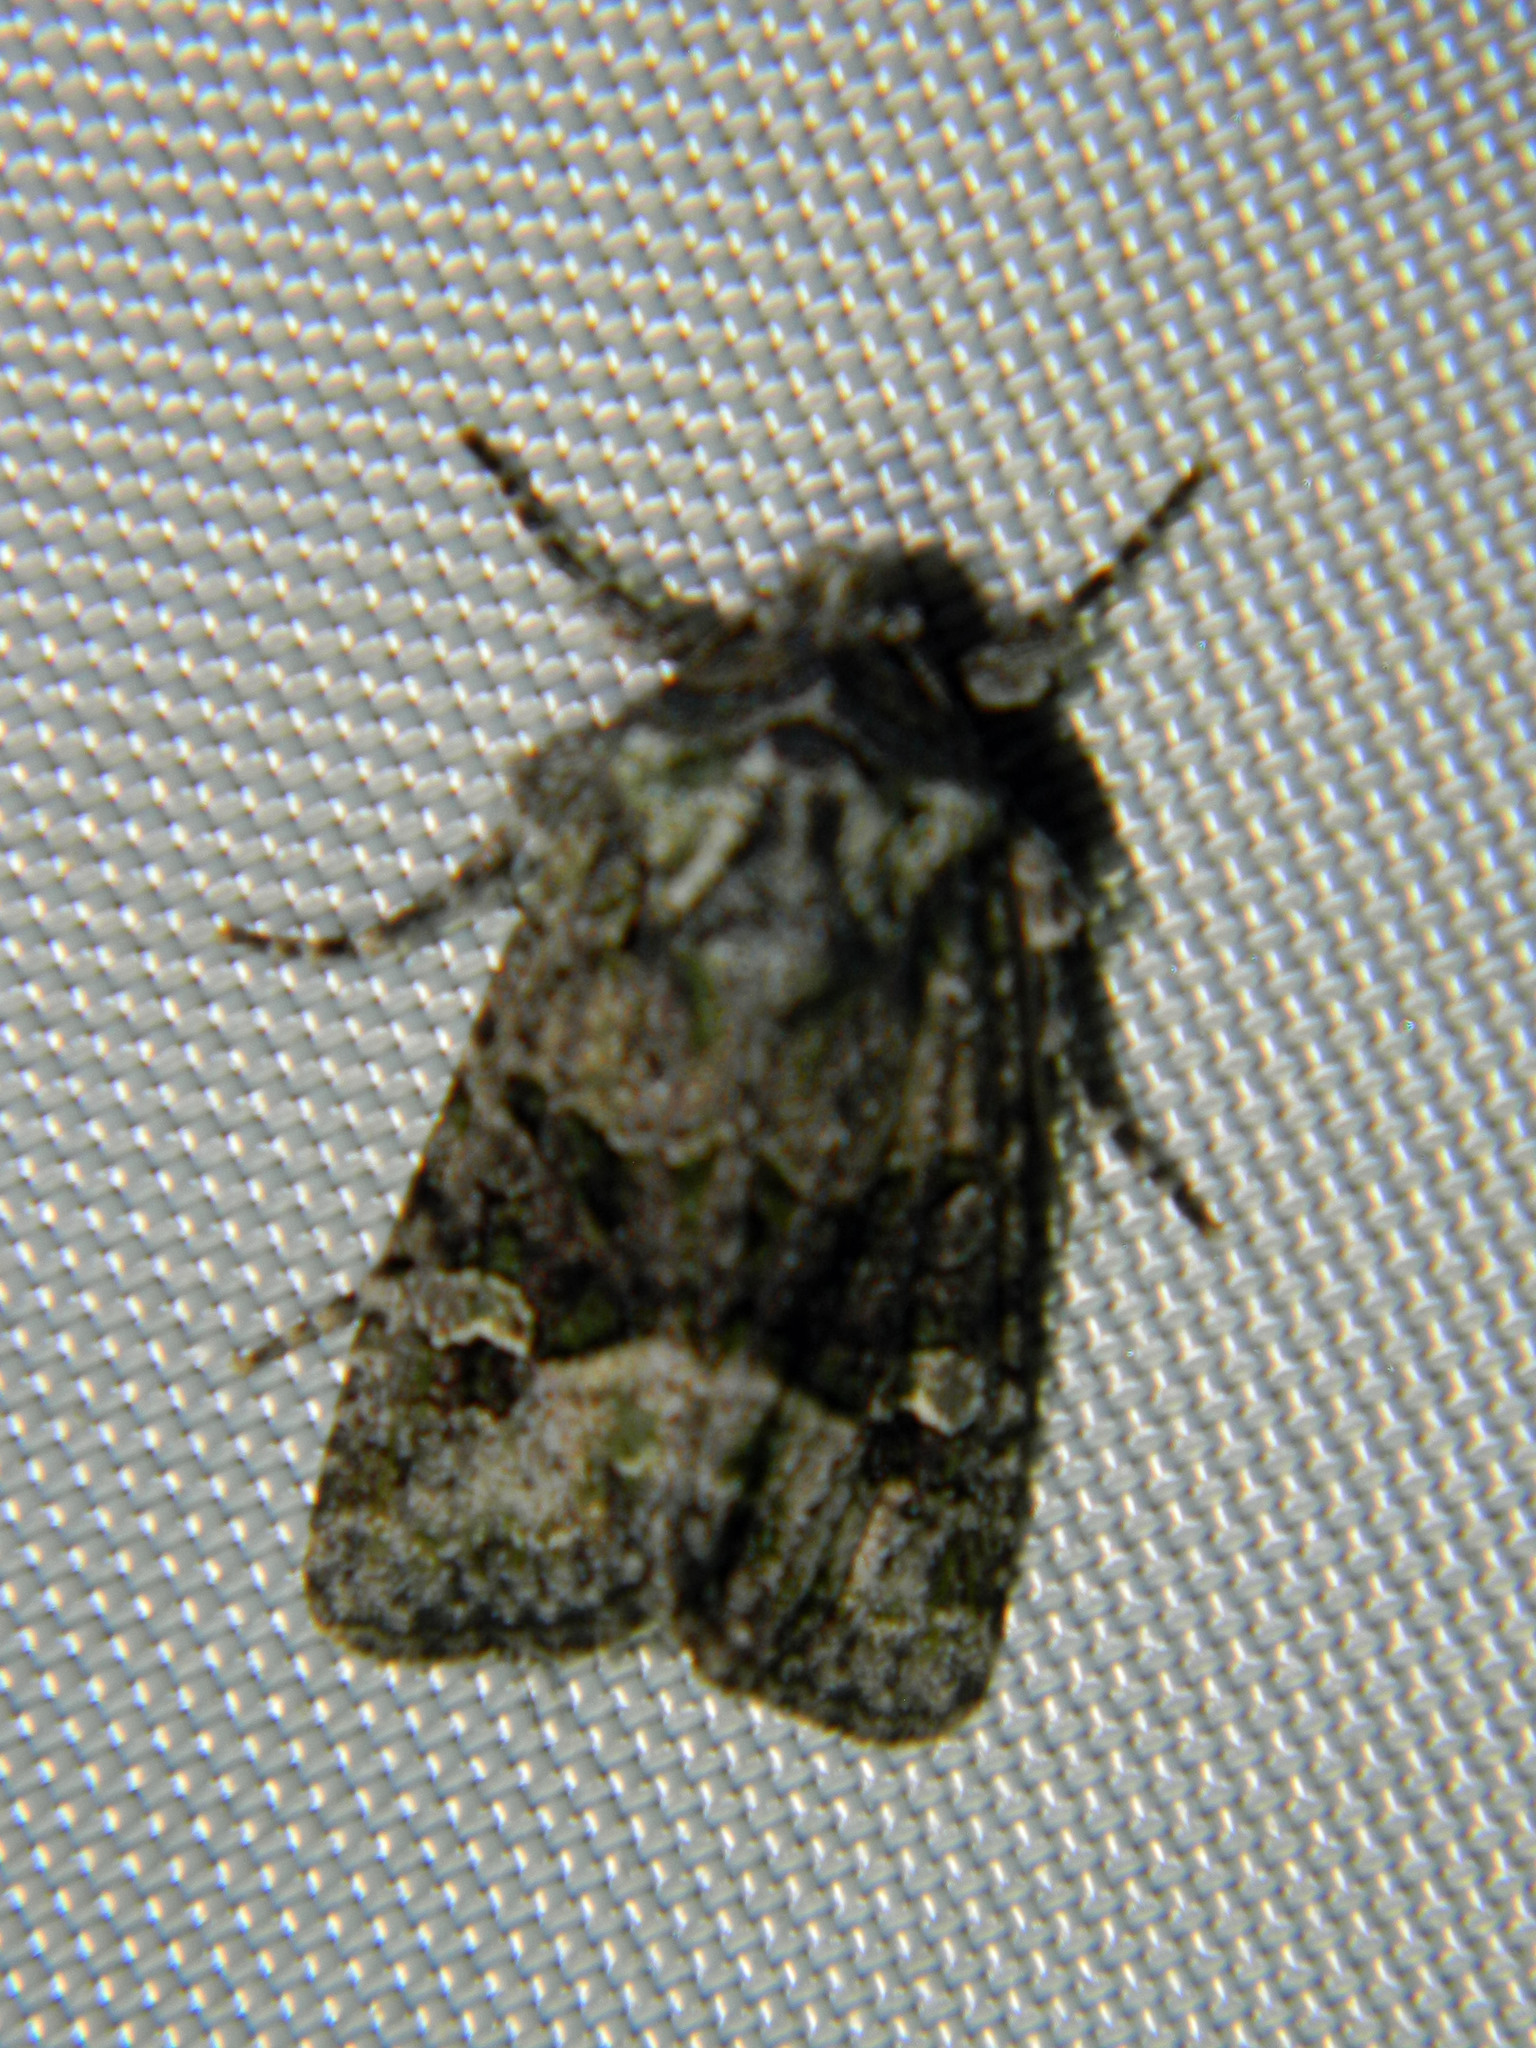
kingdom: Animalia
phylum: Arthropoda
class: Insecta
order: Lepidoptera
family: Noctuidae
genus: Lacinipolia
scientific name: Lacinipolia olivacea
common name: Olive arches moth
